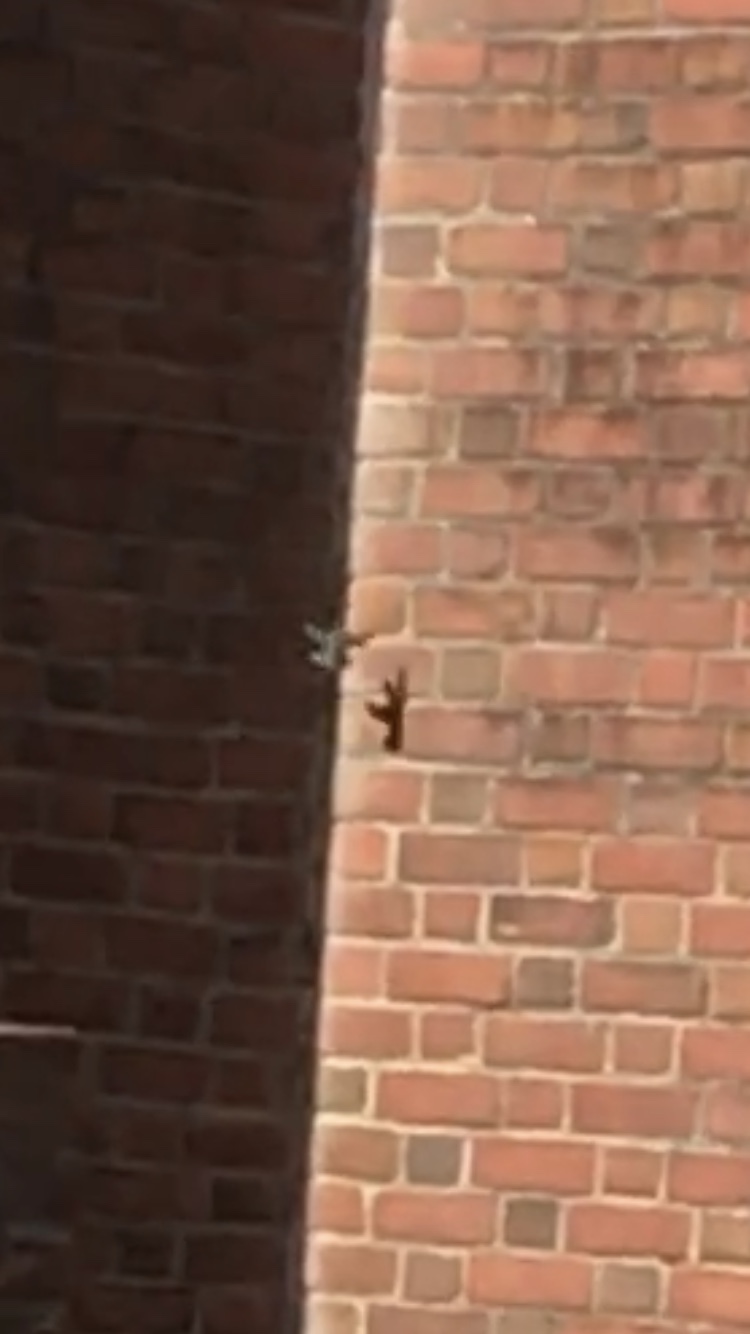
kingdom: Animalia
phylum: Chordata
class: Aves
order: Apodiformes
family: Trochilidae
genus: Archilochus
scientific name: Archilochus colubris
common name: Ruby-throated hummingbird
